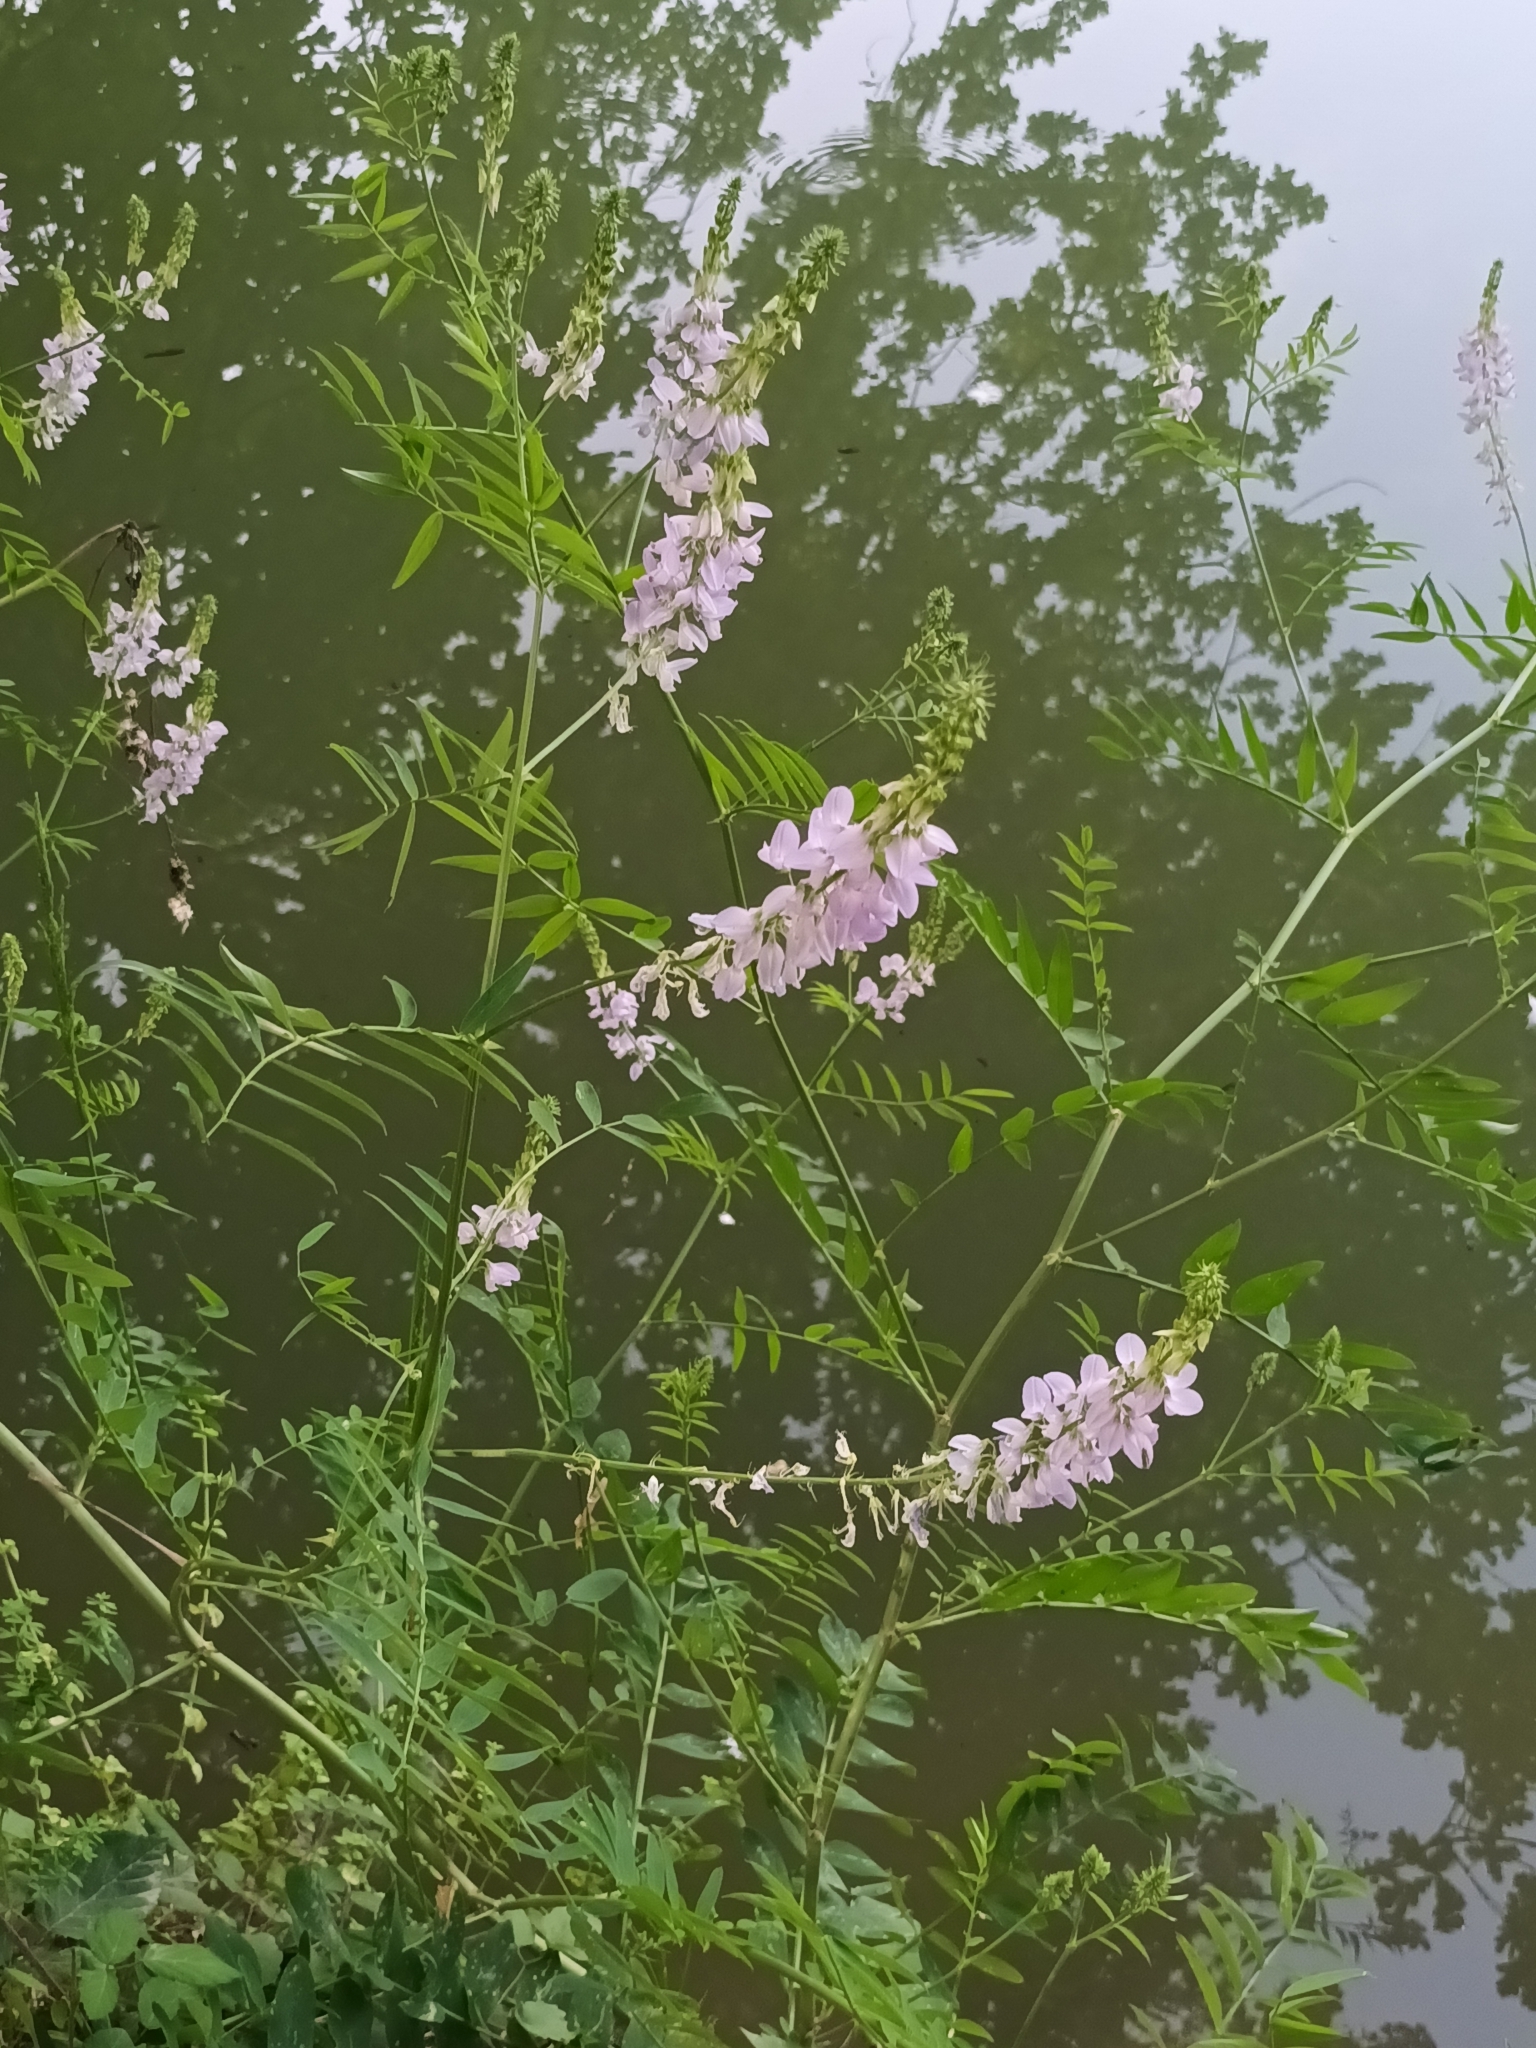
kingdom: Plantae
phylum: Tracheophyta
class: Magnoliopsida
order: Fabales
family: Fabaceae
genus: Galega
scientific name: Galega officinalis
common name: Goat's-rue
